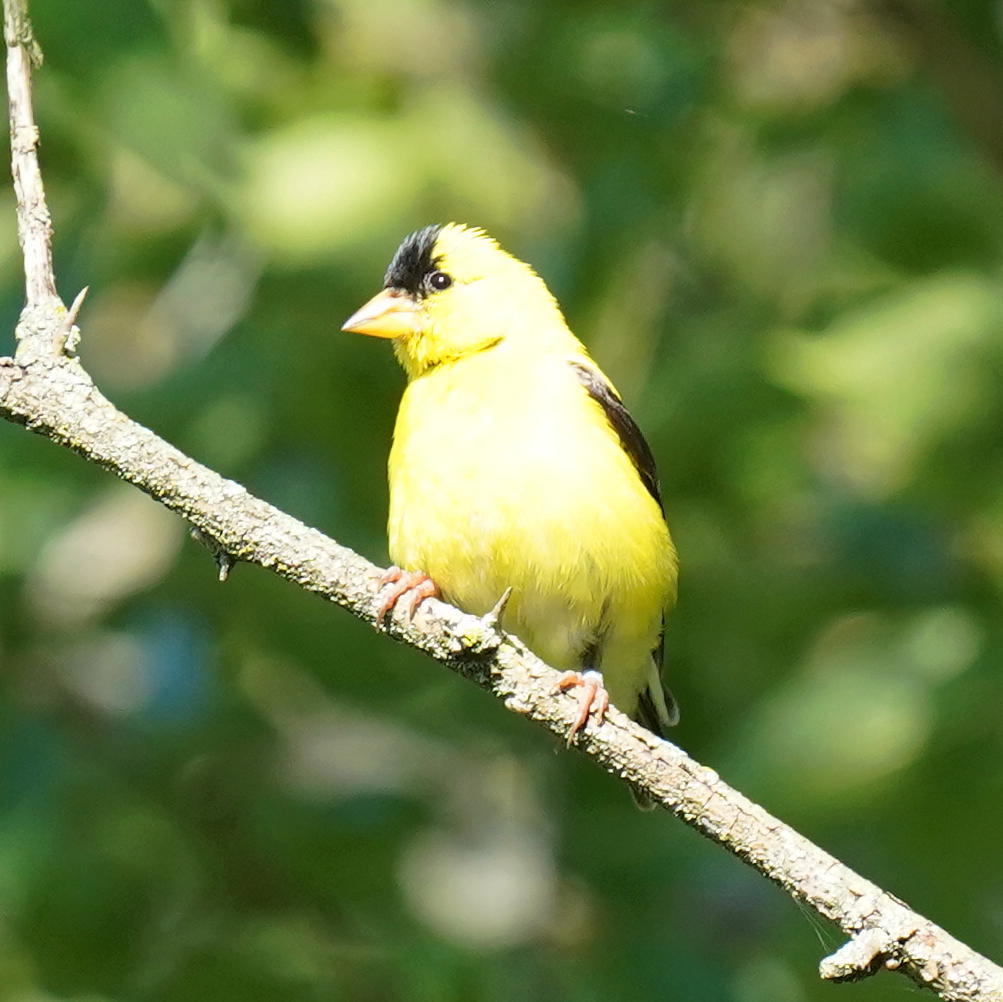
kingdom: Animalia
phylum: Chordata
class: Aves
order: Passeriformes
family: Fringillidae
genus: Spinus
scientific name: Spinus tristis
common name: American goldfinch
